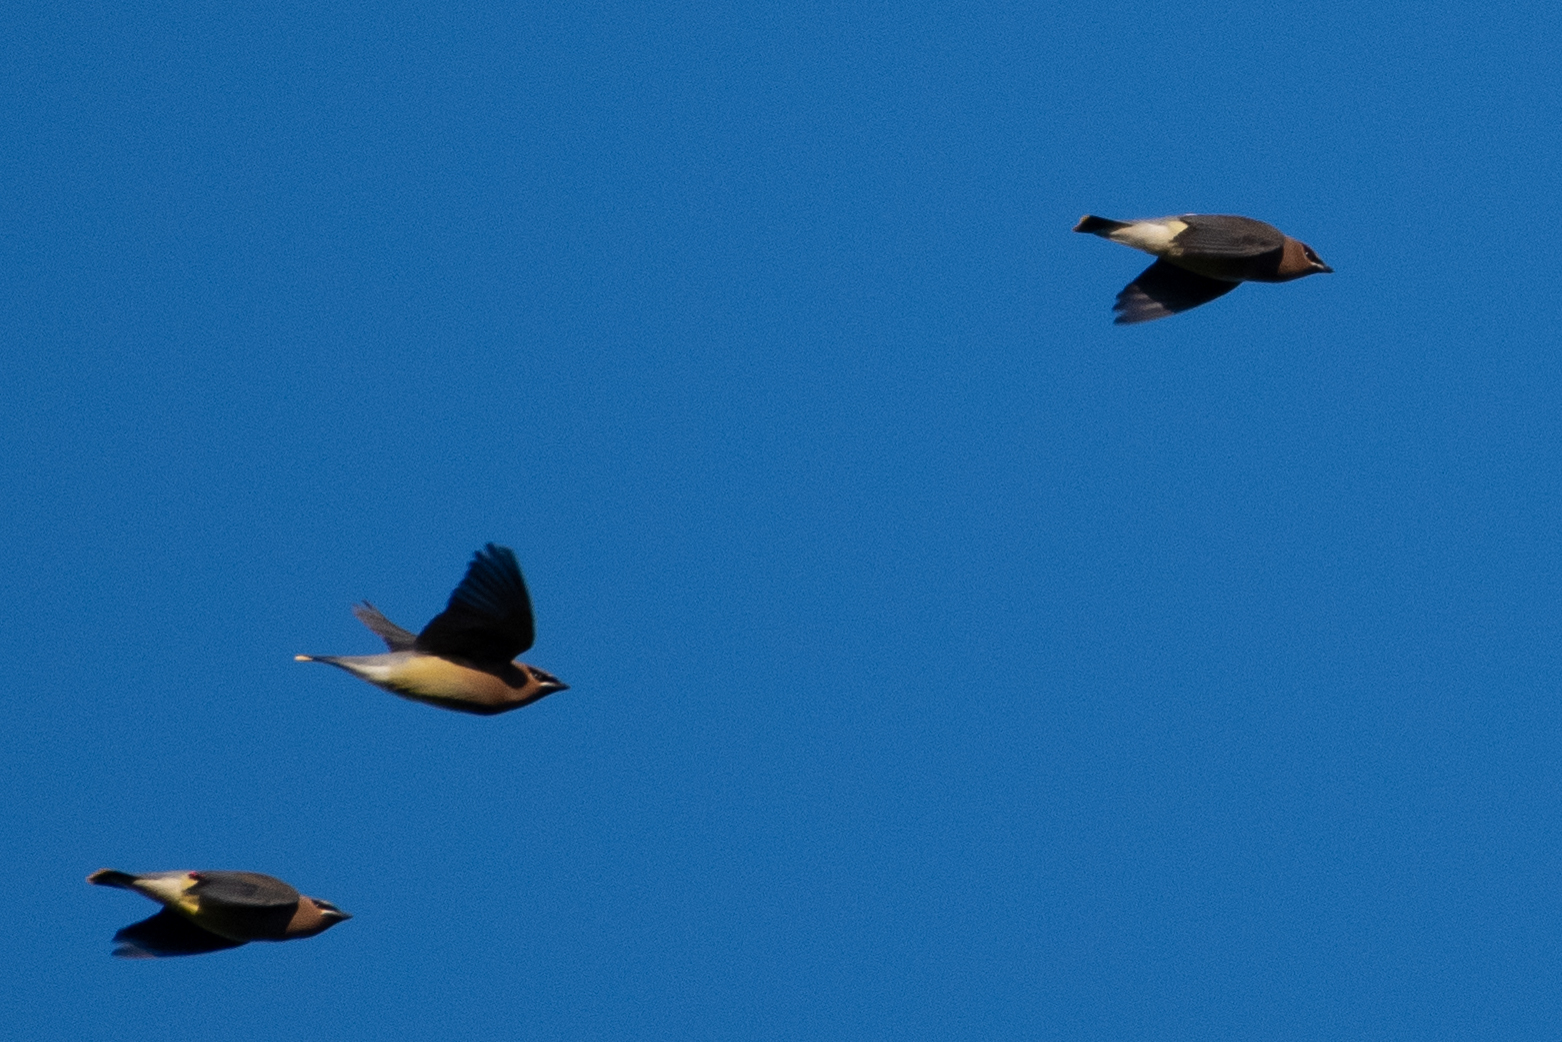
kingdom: Animalia
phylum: Chordata
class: Aves
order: Passeriformes
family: Bombycillidae
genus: Bombycilla
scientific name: Bombycilla cedrorum
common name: Cedar waxwing
